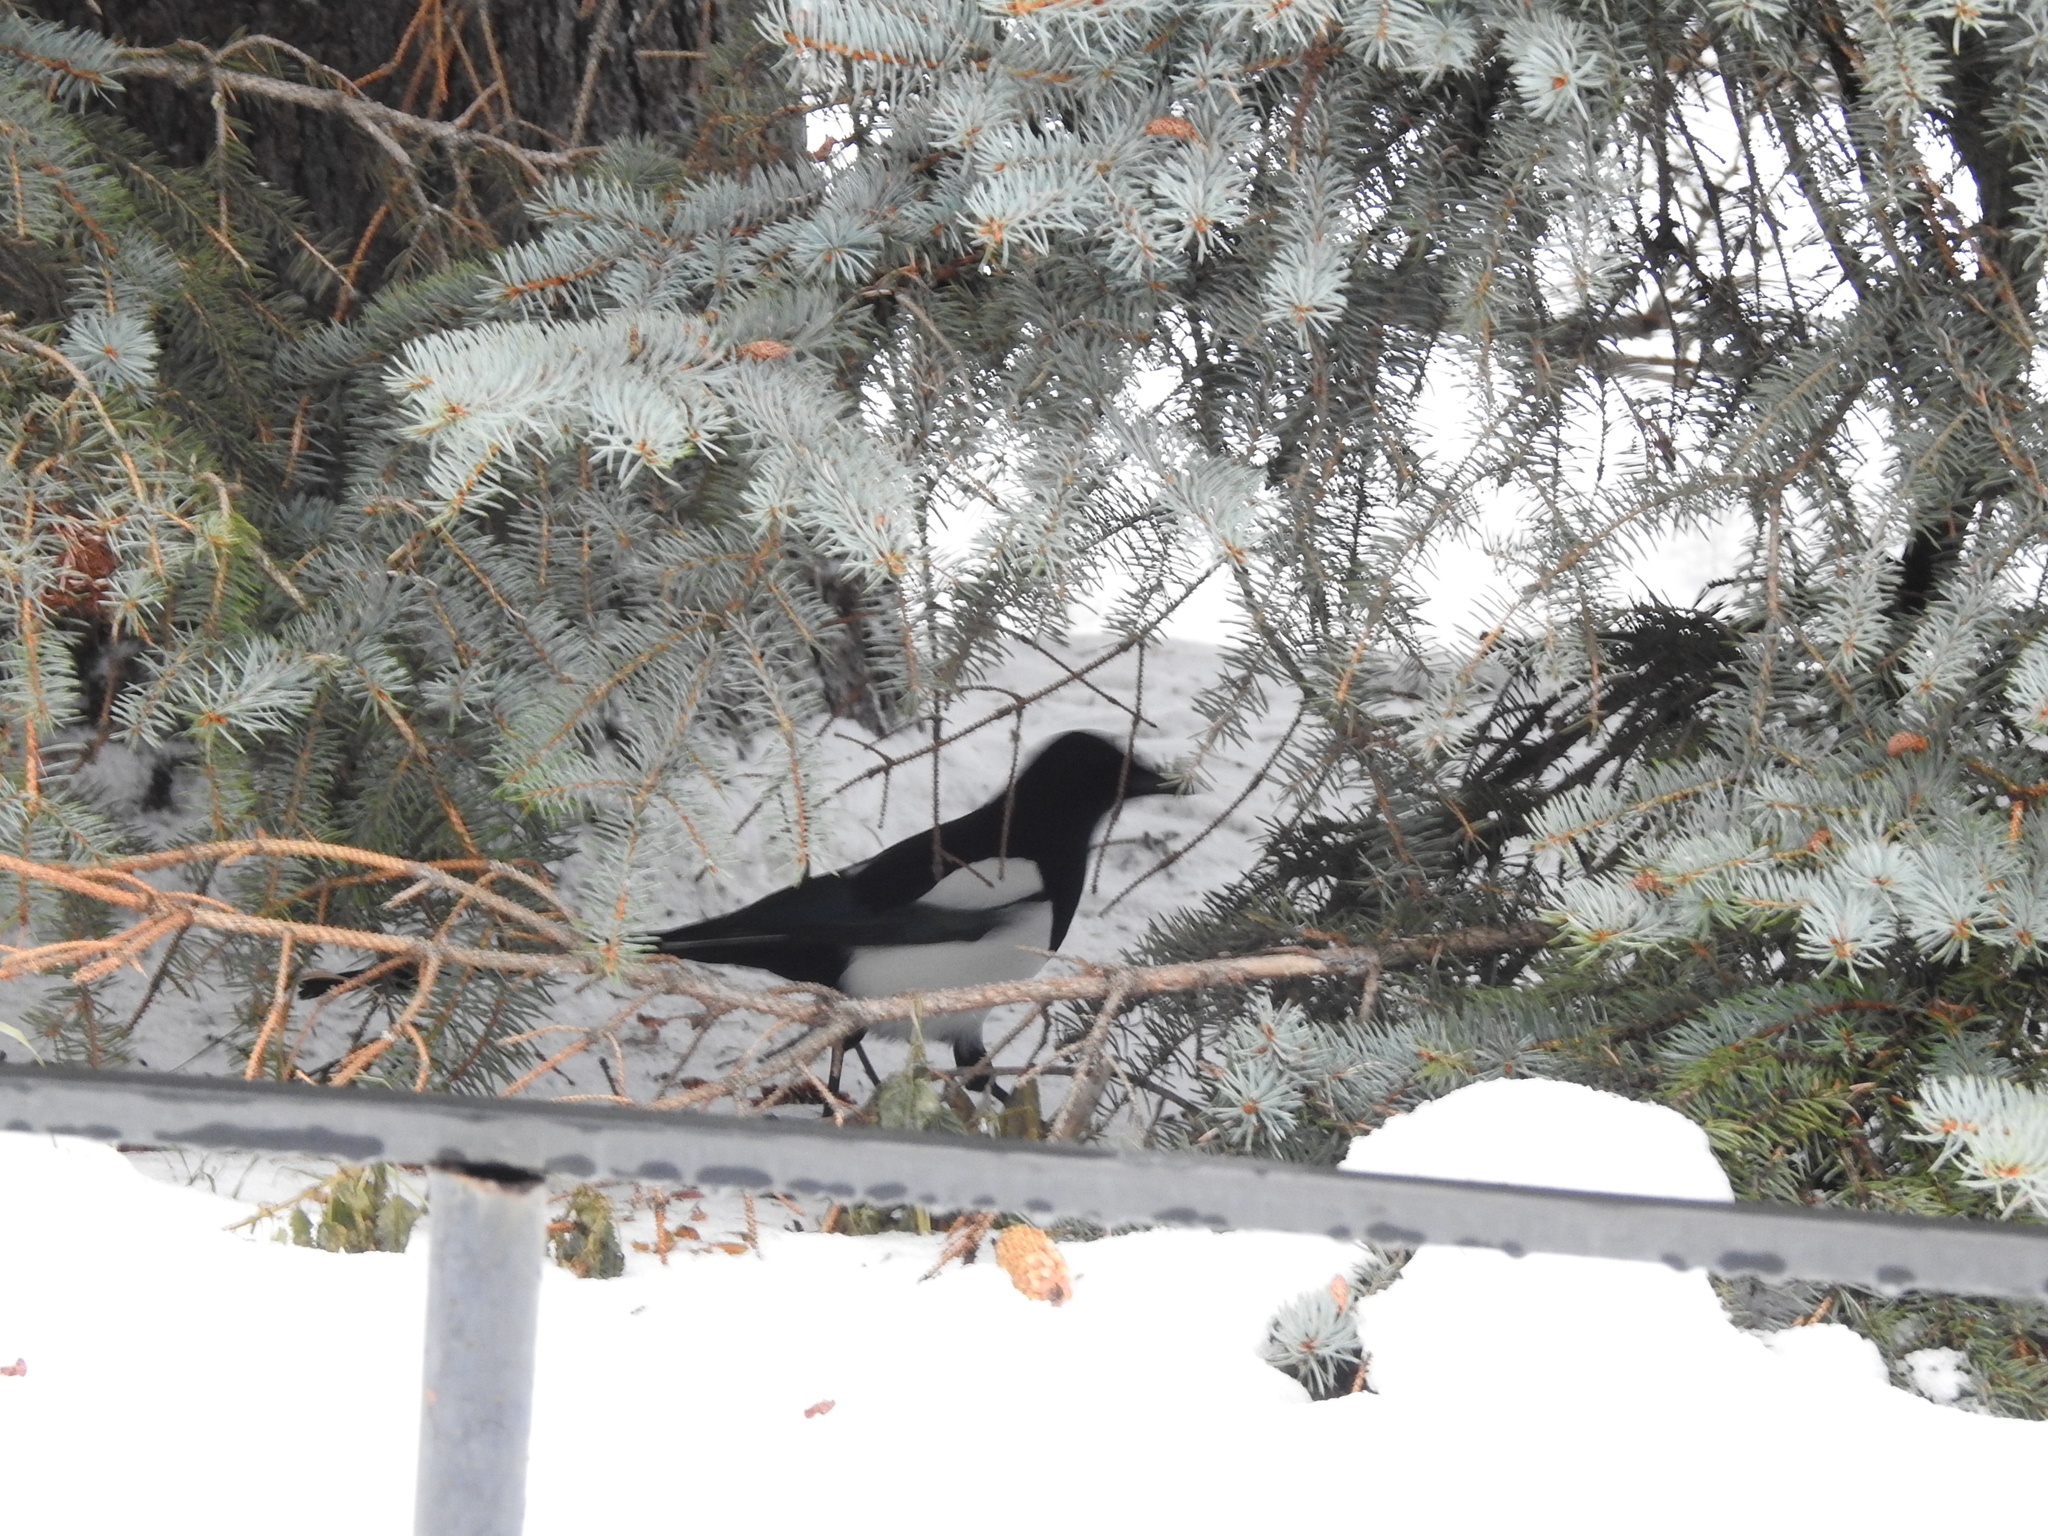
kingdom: Animalia
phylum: Chordata
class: Aves
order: Passeriformes
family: Corvidae
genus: Pica
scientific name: Pica pica
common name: Eurasian magpie
